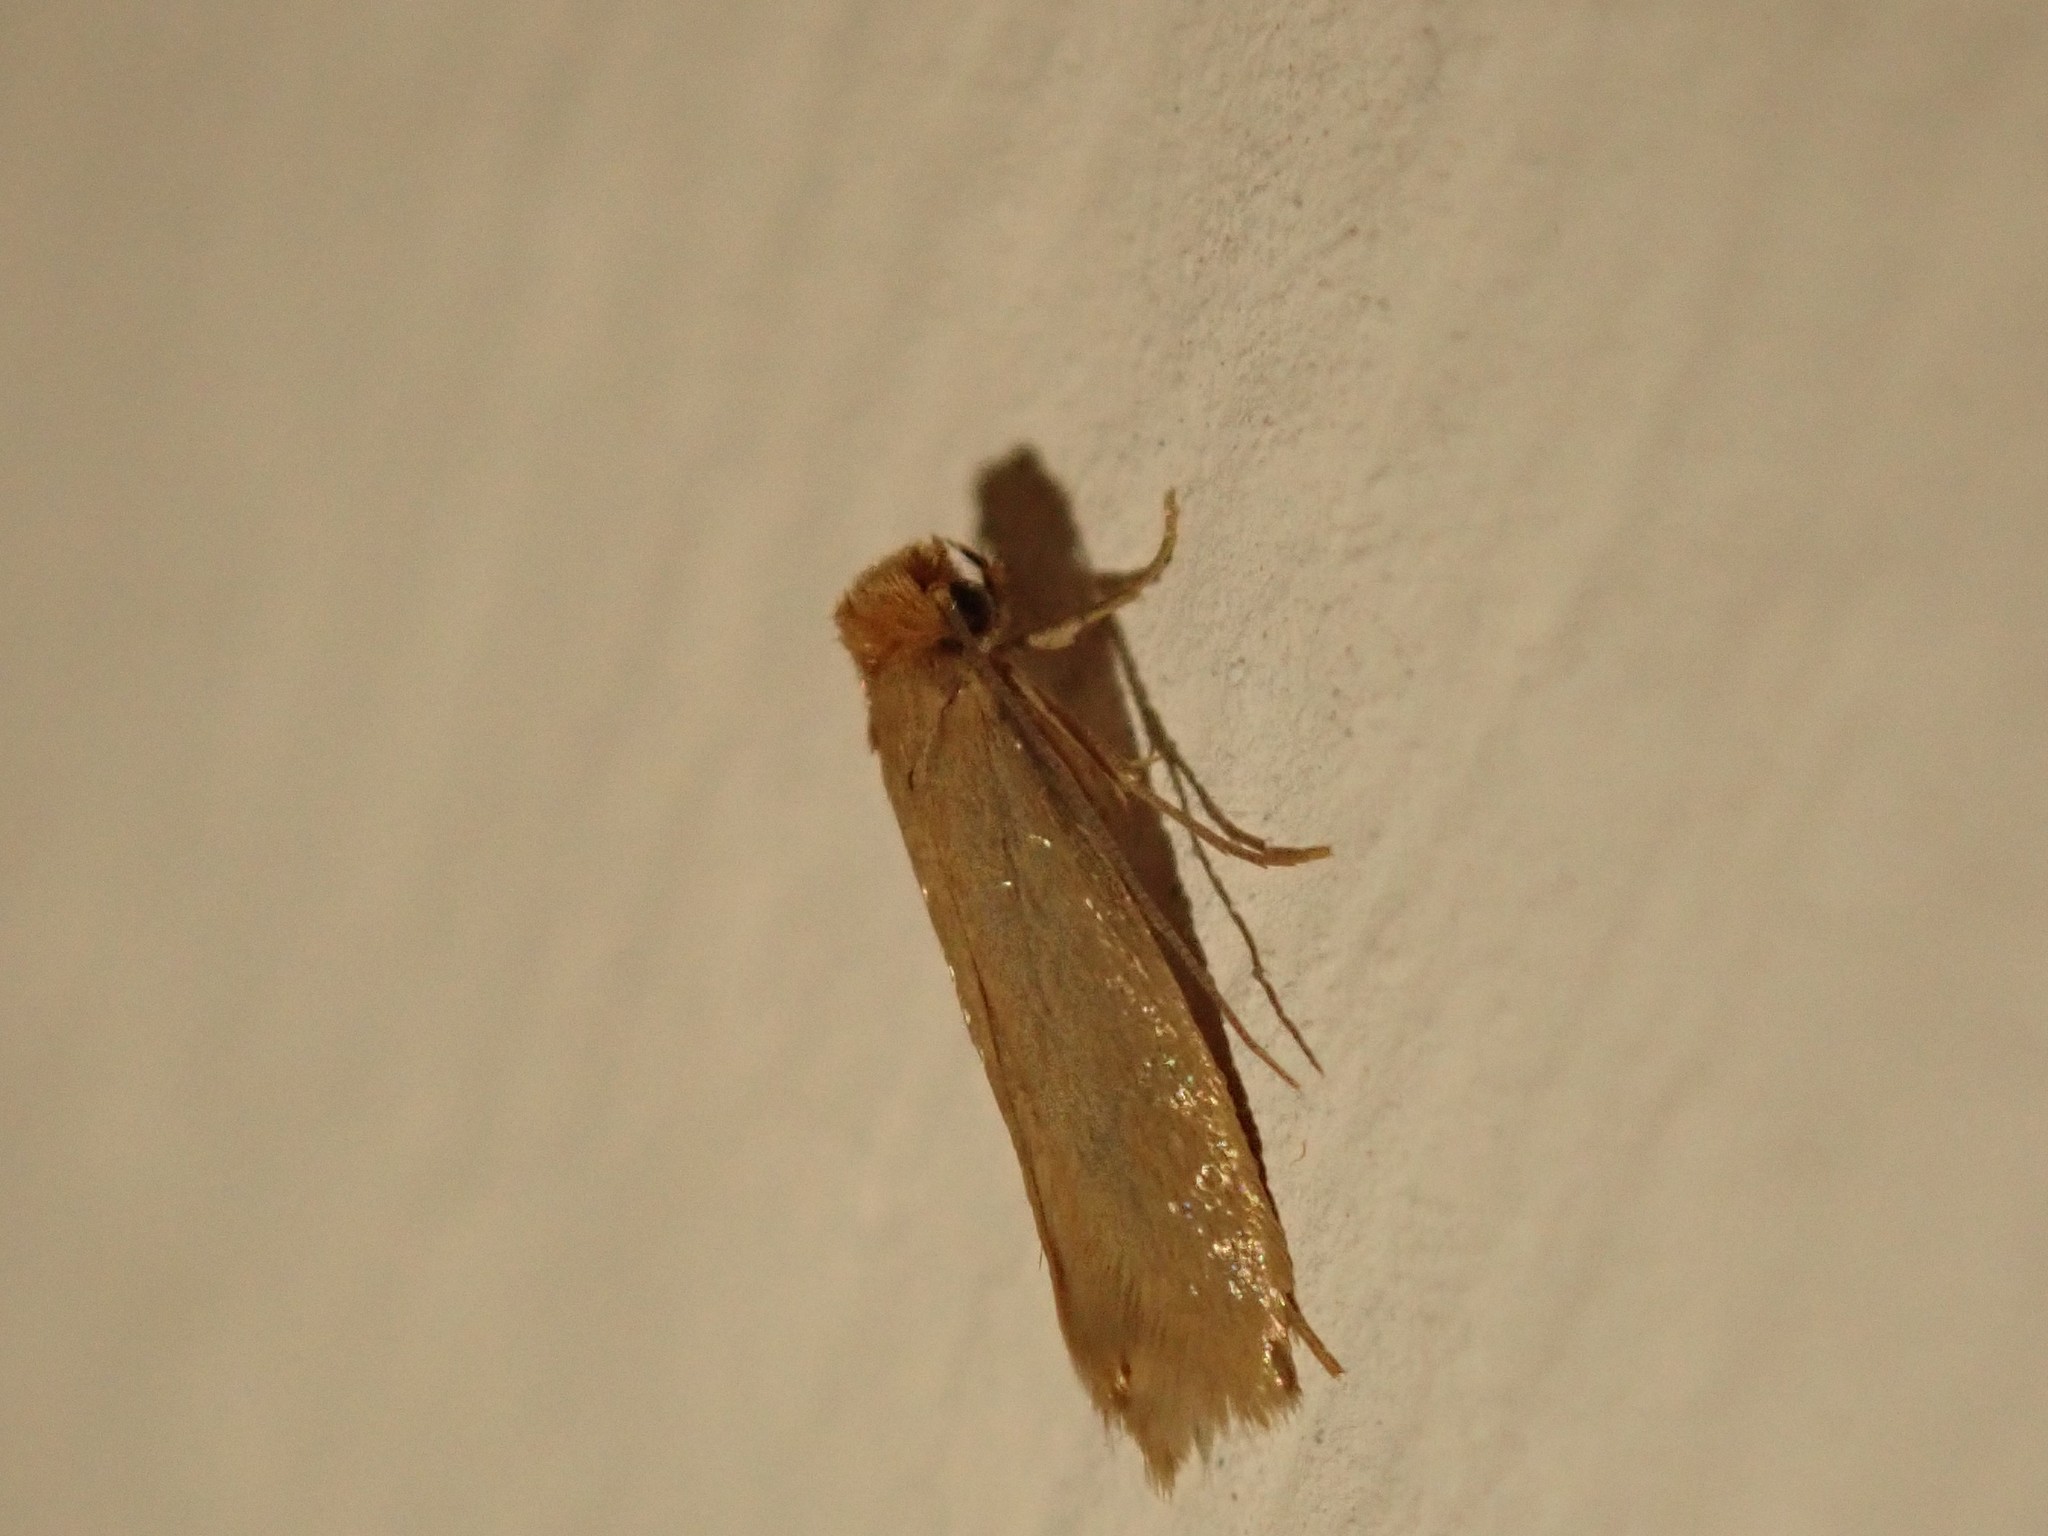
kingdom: Animalia
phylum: Arthropoda
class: Insecta
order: Lepidoptera
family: Tineidae
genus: Tineola
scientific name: Tineola bisselliella
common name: Webbing clothes moth
